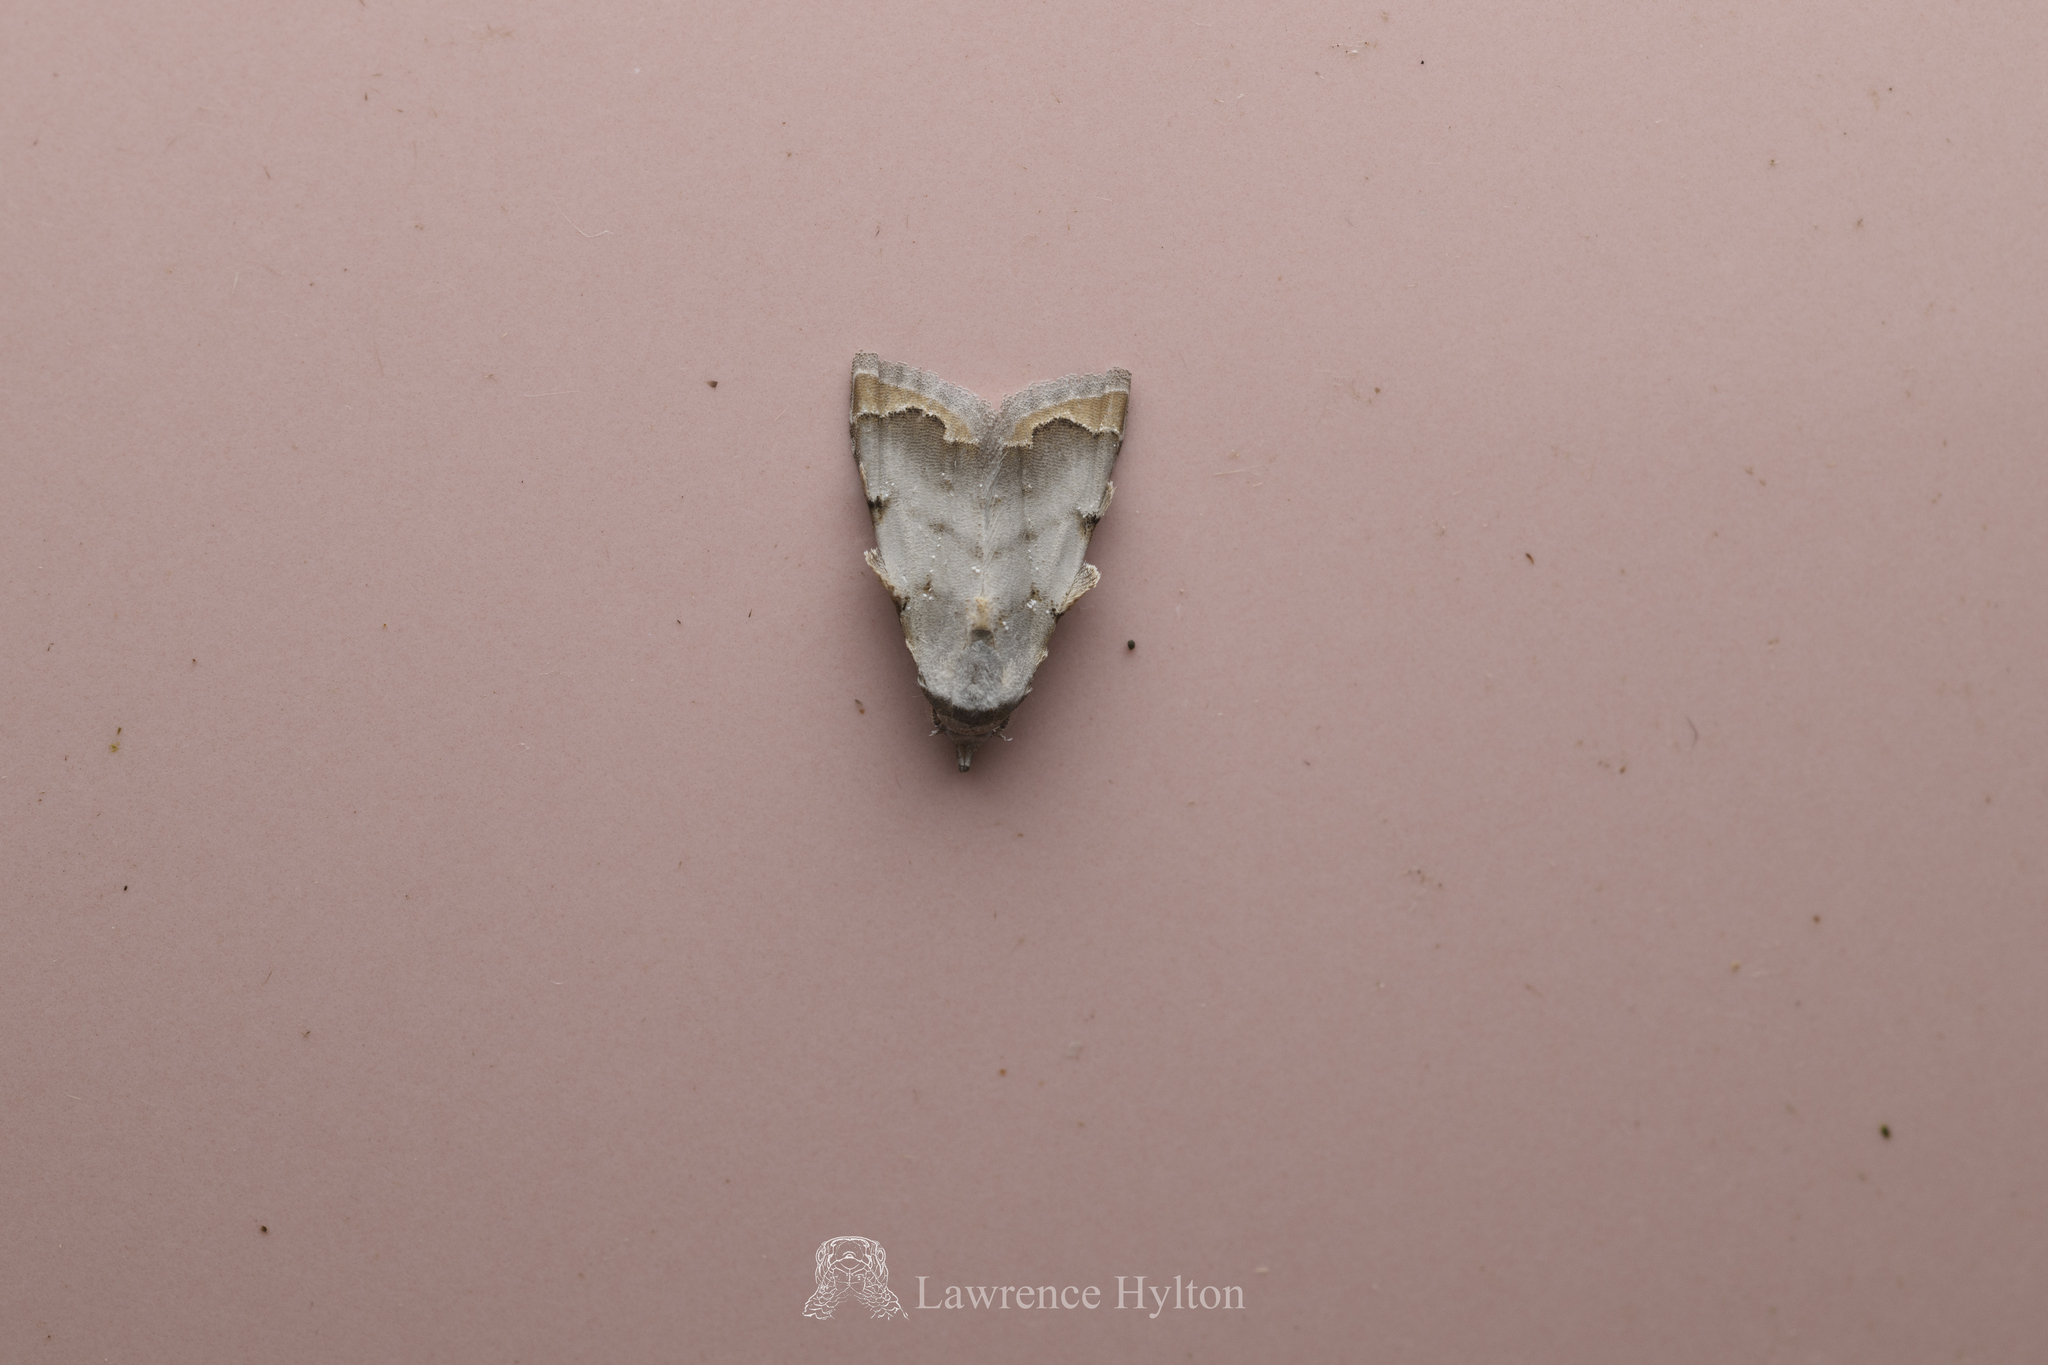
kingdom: Animalia
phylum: Arthropoda
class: Insecta
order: Lepidoptera
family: Nolidae
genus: Nola
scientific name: Nola marginata
